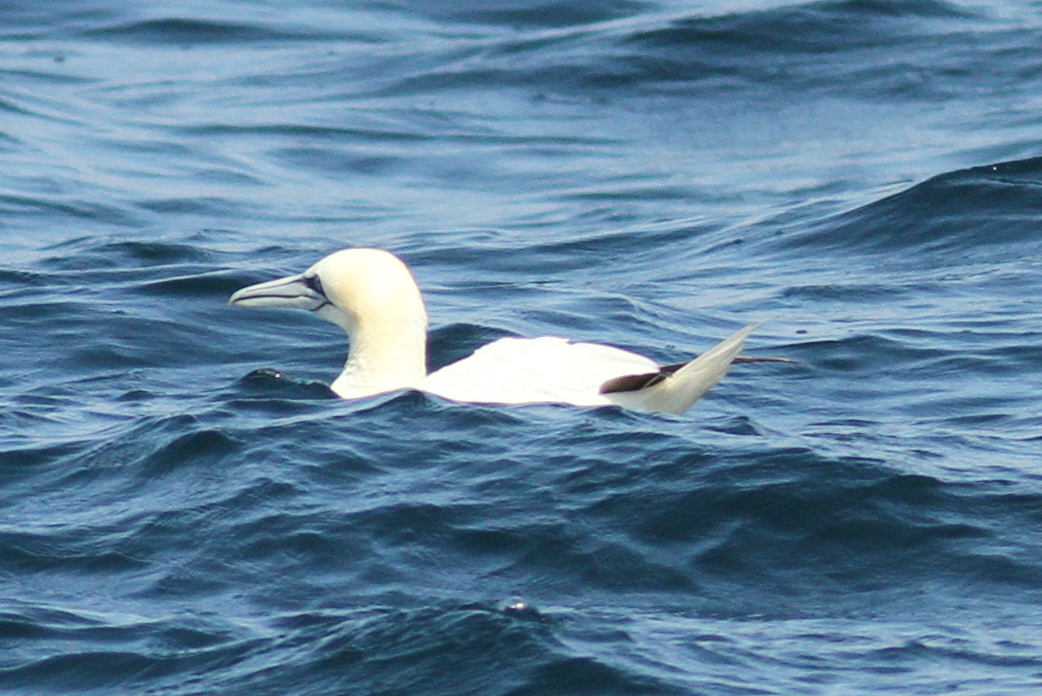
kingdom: Animalia
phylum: Chordata
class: Aves
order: Suliformes
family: Sulidae
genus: Morus
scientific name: Morus bassanus
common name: Northern gannet
